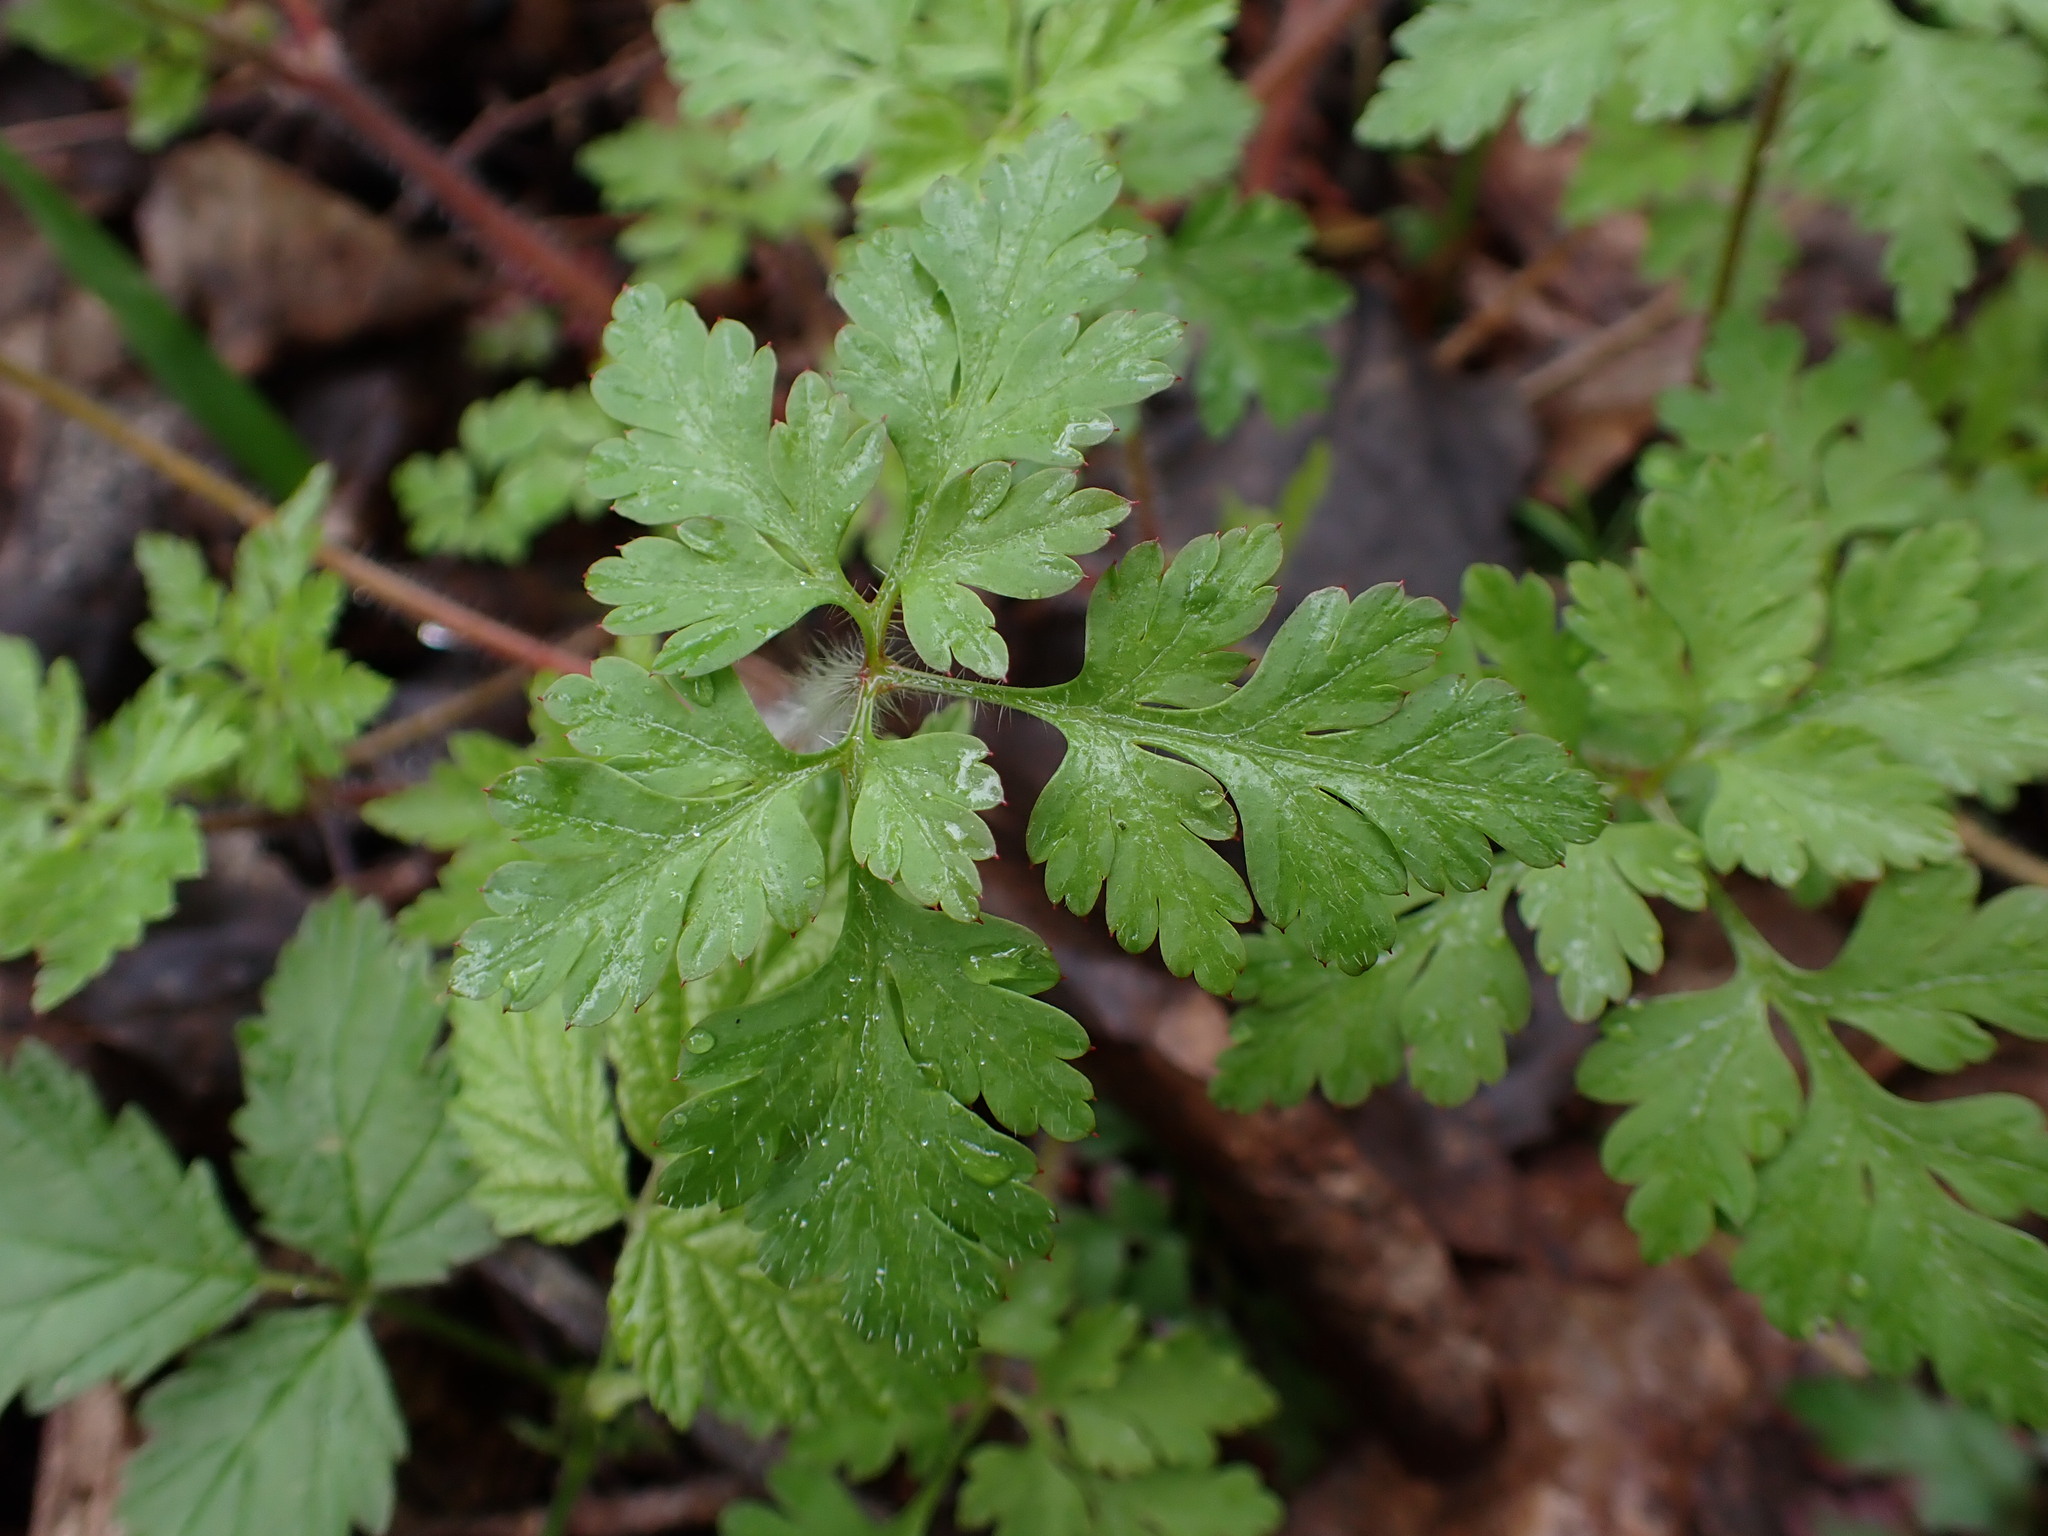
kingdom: Plantae
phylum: Tracheophyta
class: Magnoliopsida
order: Geraniales
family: Geraniaceae
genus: Geranium
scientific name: Geranium robertianum
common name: Herb-robert
